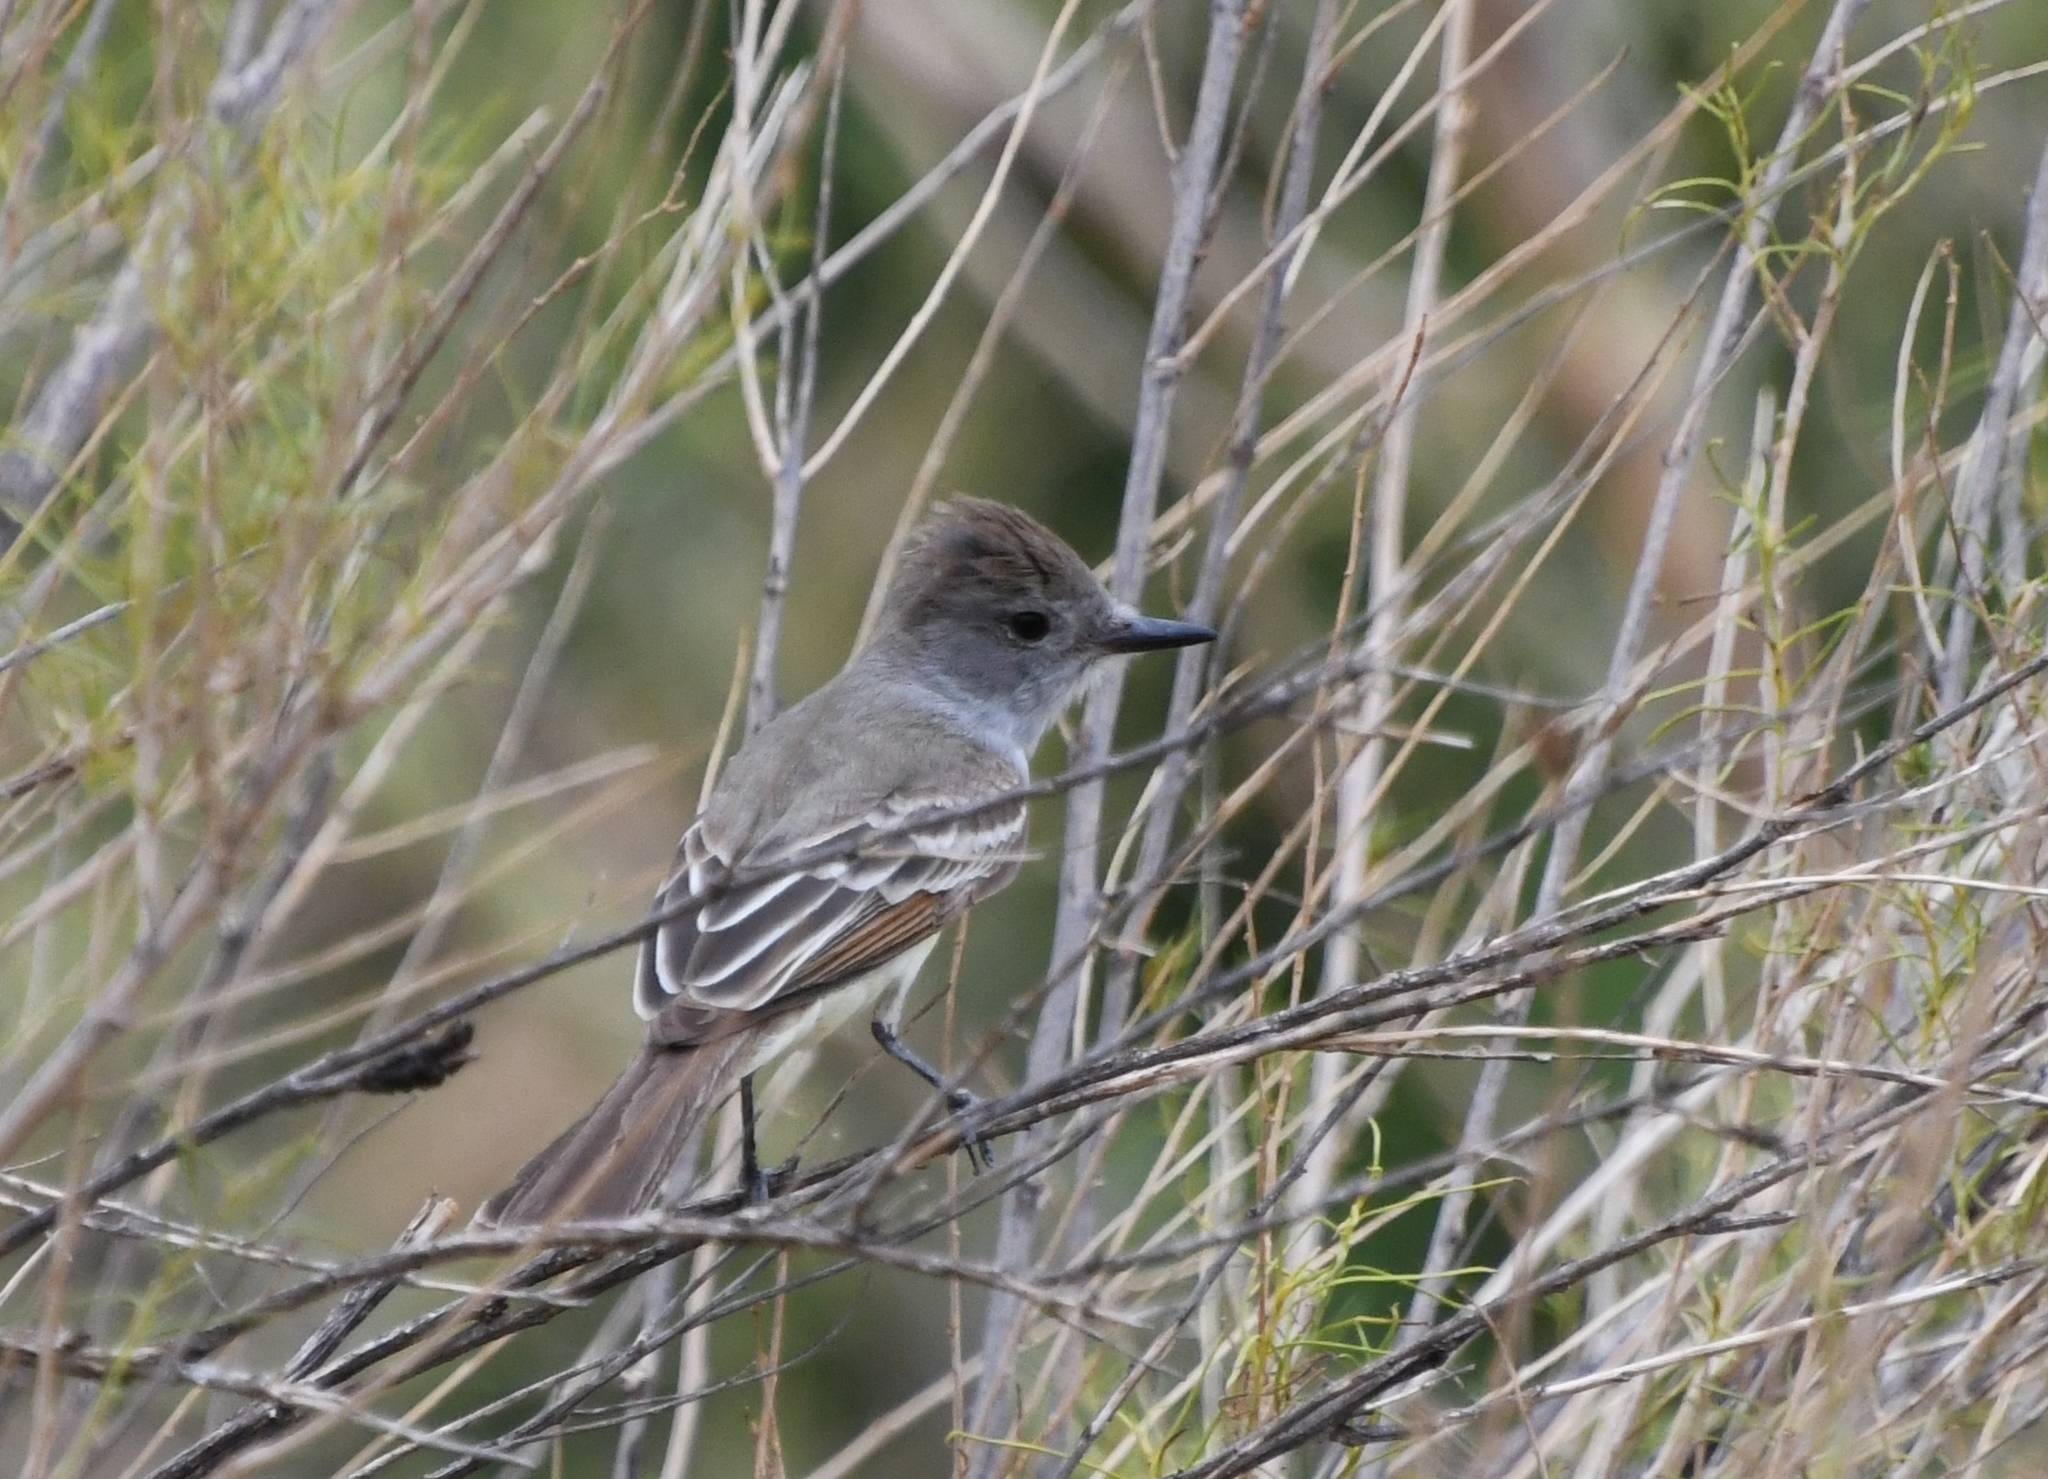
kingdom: Animalia
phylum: Chordata
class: Aves
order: Passeriformes
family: Tyrannidae
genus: Myiarchus
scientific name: Myiarchus cinerascens
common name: Ash-throated flycatcher
